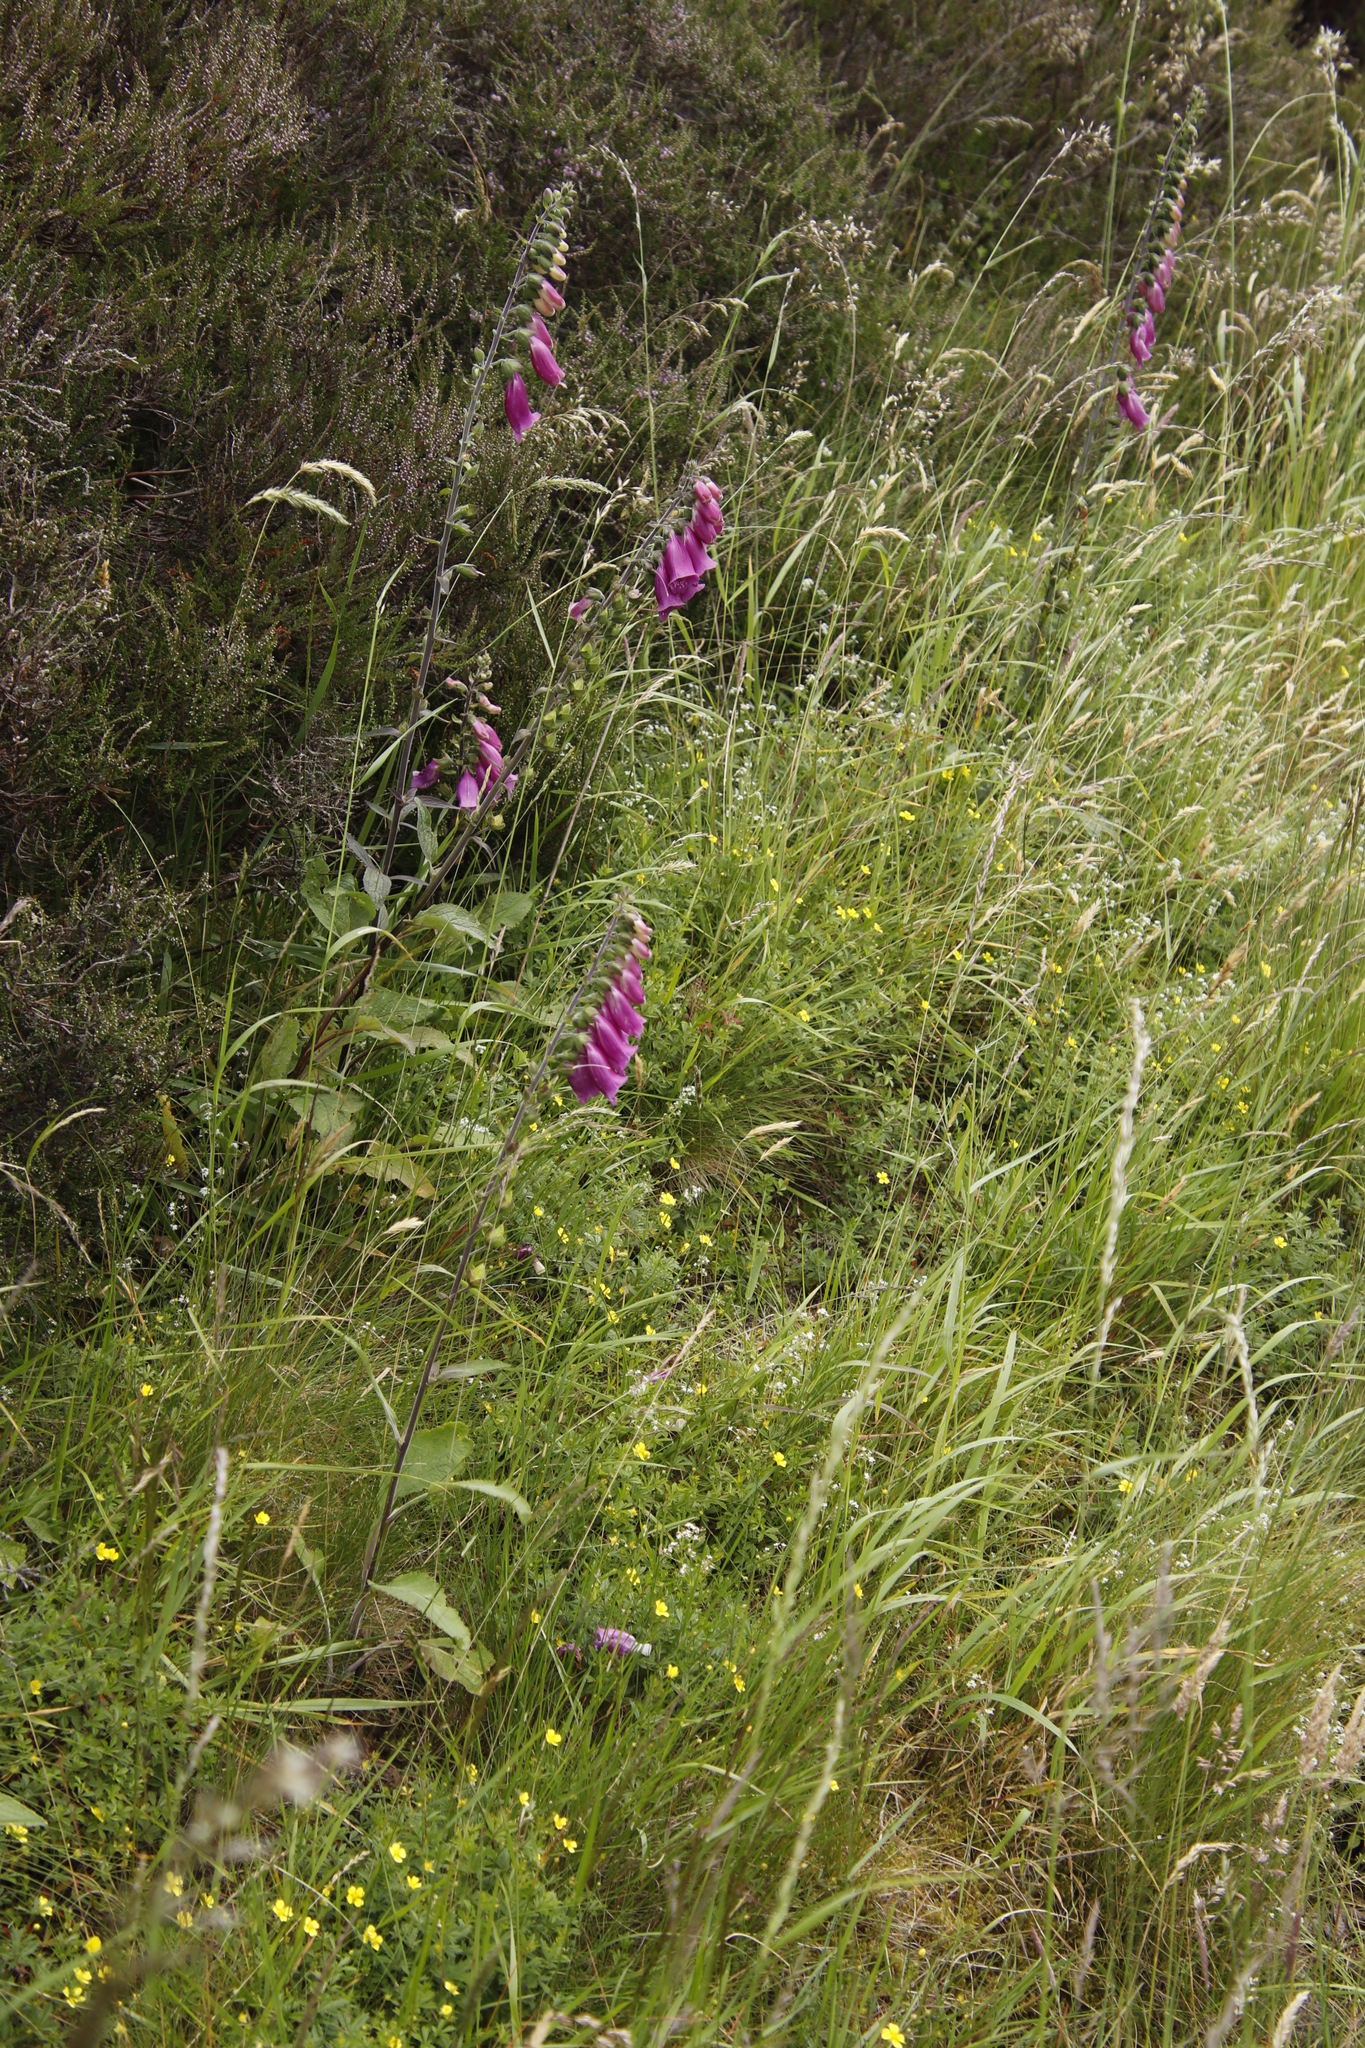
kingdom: Plantae
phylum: Tracheophyta
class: Magnoliopsida
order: Lamiales
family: Plantaginaceae
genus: Digitalis
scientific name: Digitalis purpurea
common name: Foxglove
